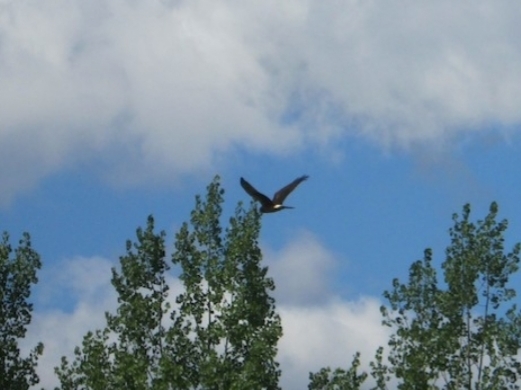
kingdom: Animalia
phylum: Chordata
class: Aves
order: Accipitriformes
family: Accipitridae
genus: Circus
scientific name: Circus cyaneus
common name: Hen harrier
